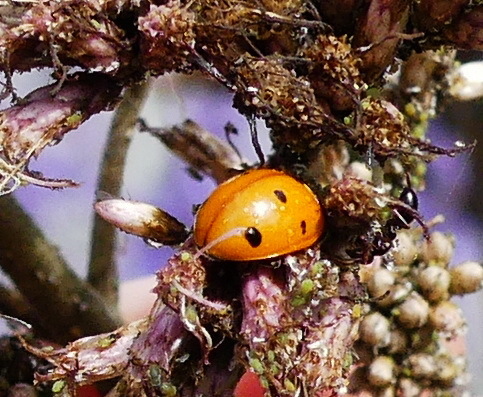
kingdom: Animalia
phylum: Arthropoda
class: Insecta
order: Coleoptera
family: Coccinellidae
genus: Coccinella
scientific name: Coccinella septempunctata
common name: Sevenspotted lady beetle
